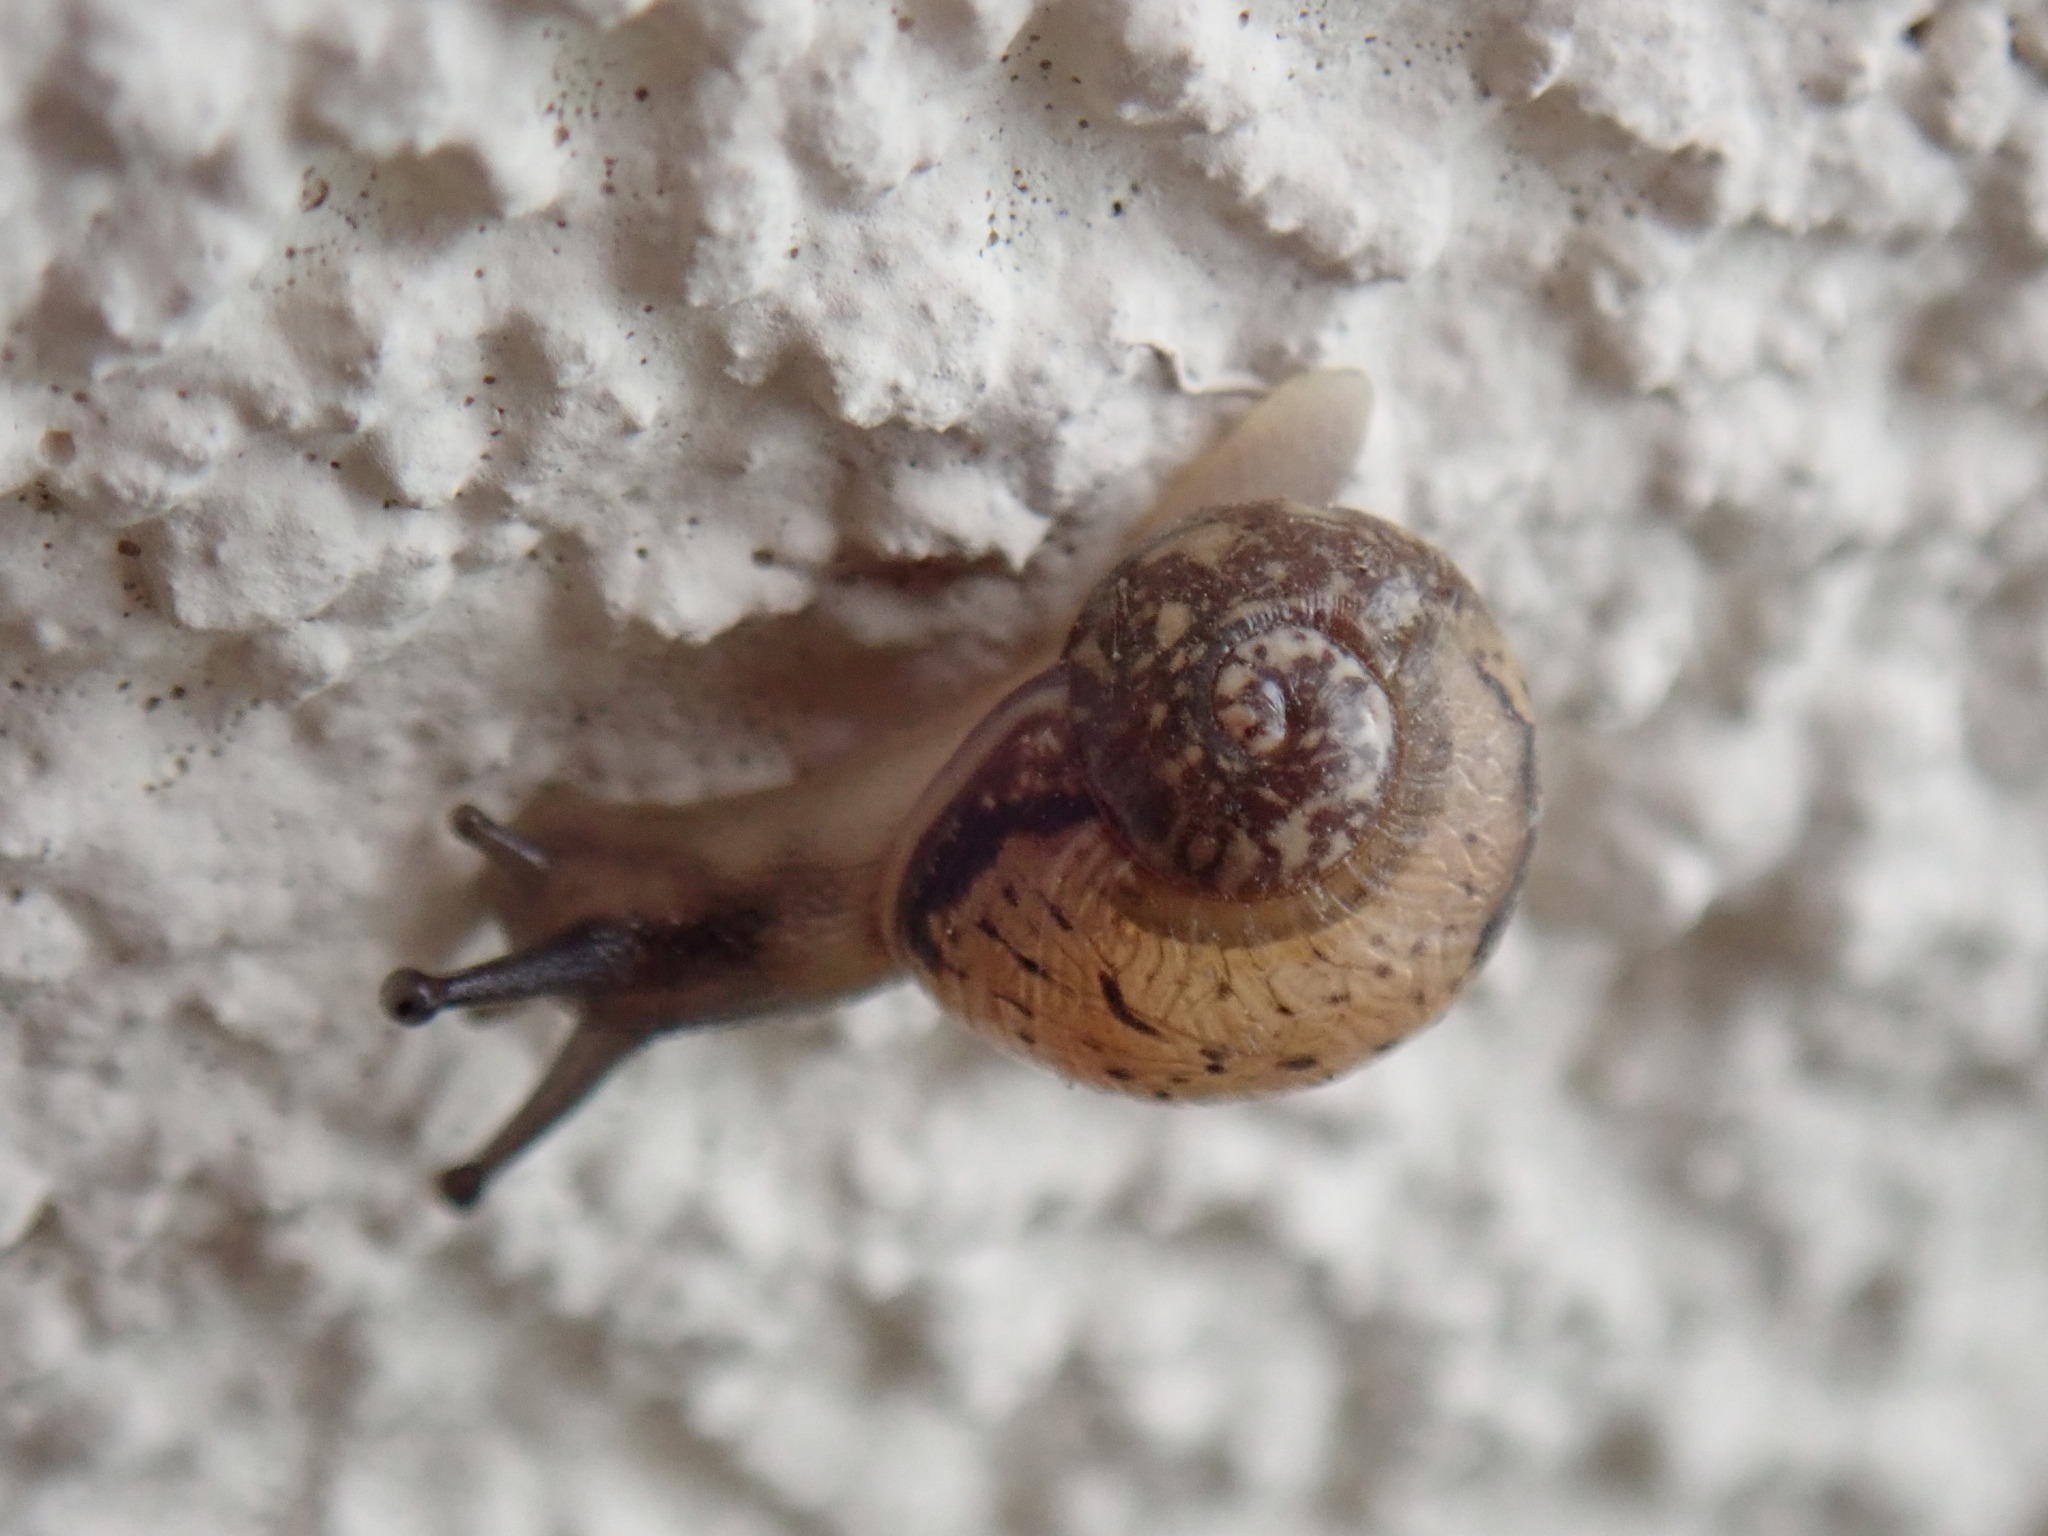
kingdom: Animalia
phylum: Mollusca
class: Gastropoda
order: Stylommatophora
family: Helicidae
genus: Cornu
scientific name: Cornu aspersum
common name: Brown garden snail
